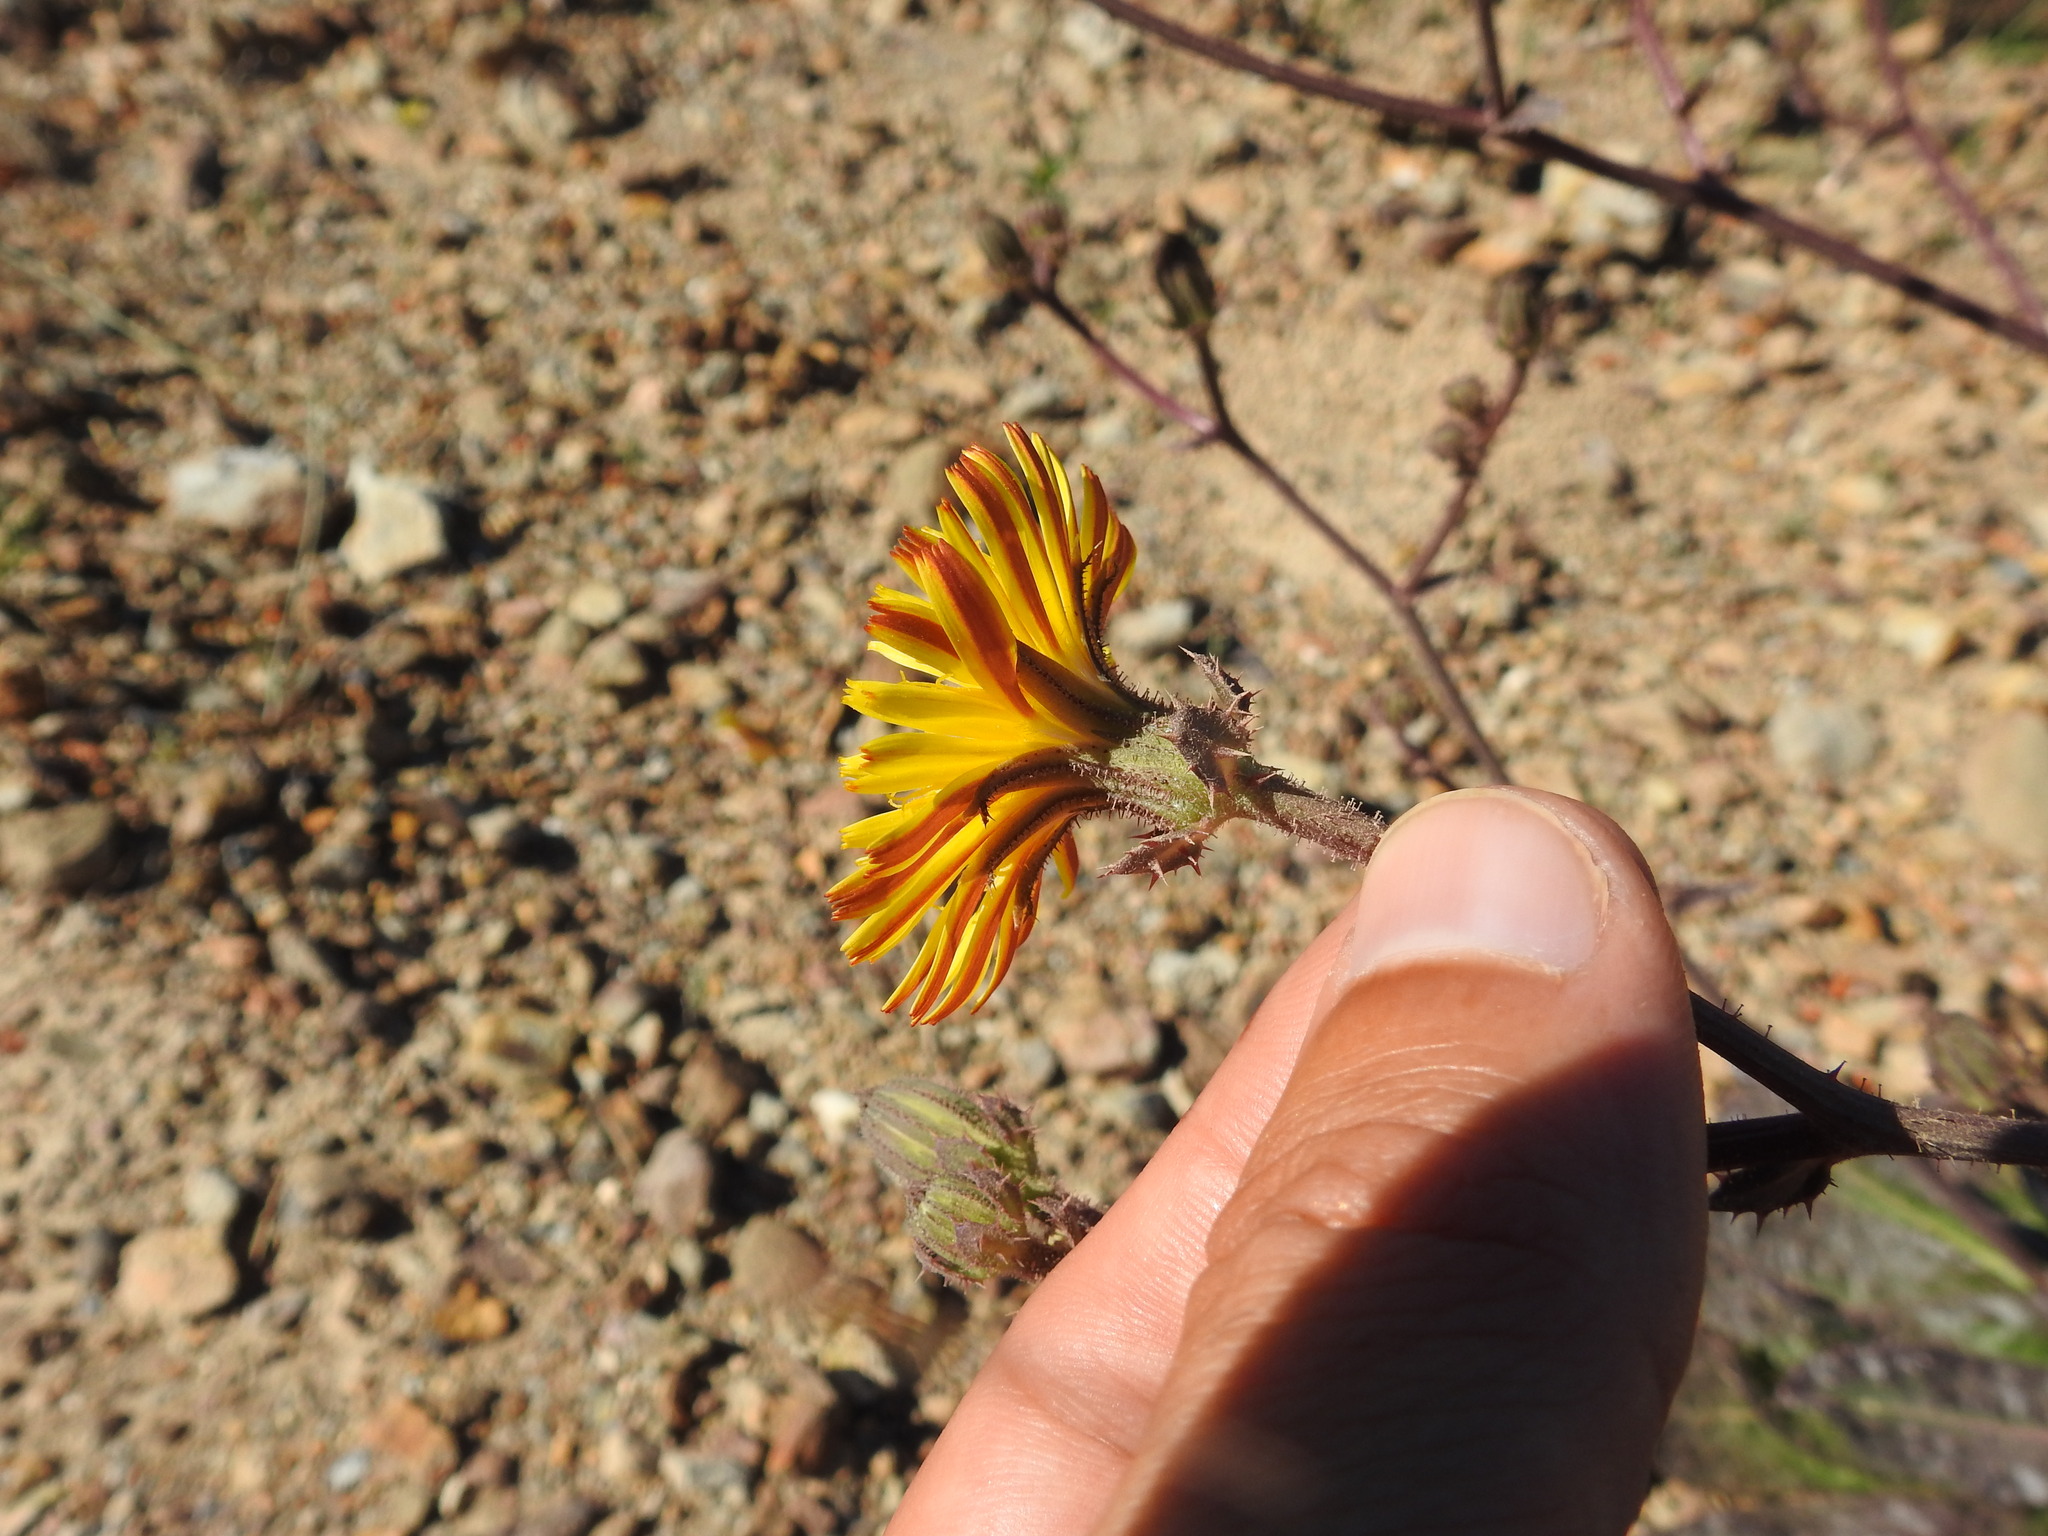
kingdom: Plantae
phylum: Tracheophyta
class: Magnoliopsida
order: Asterales
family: Asteraceae
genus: Helminthotheca
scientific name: Helminthotheca spinosa
